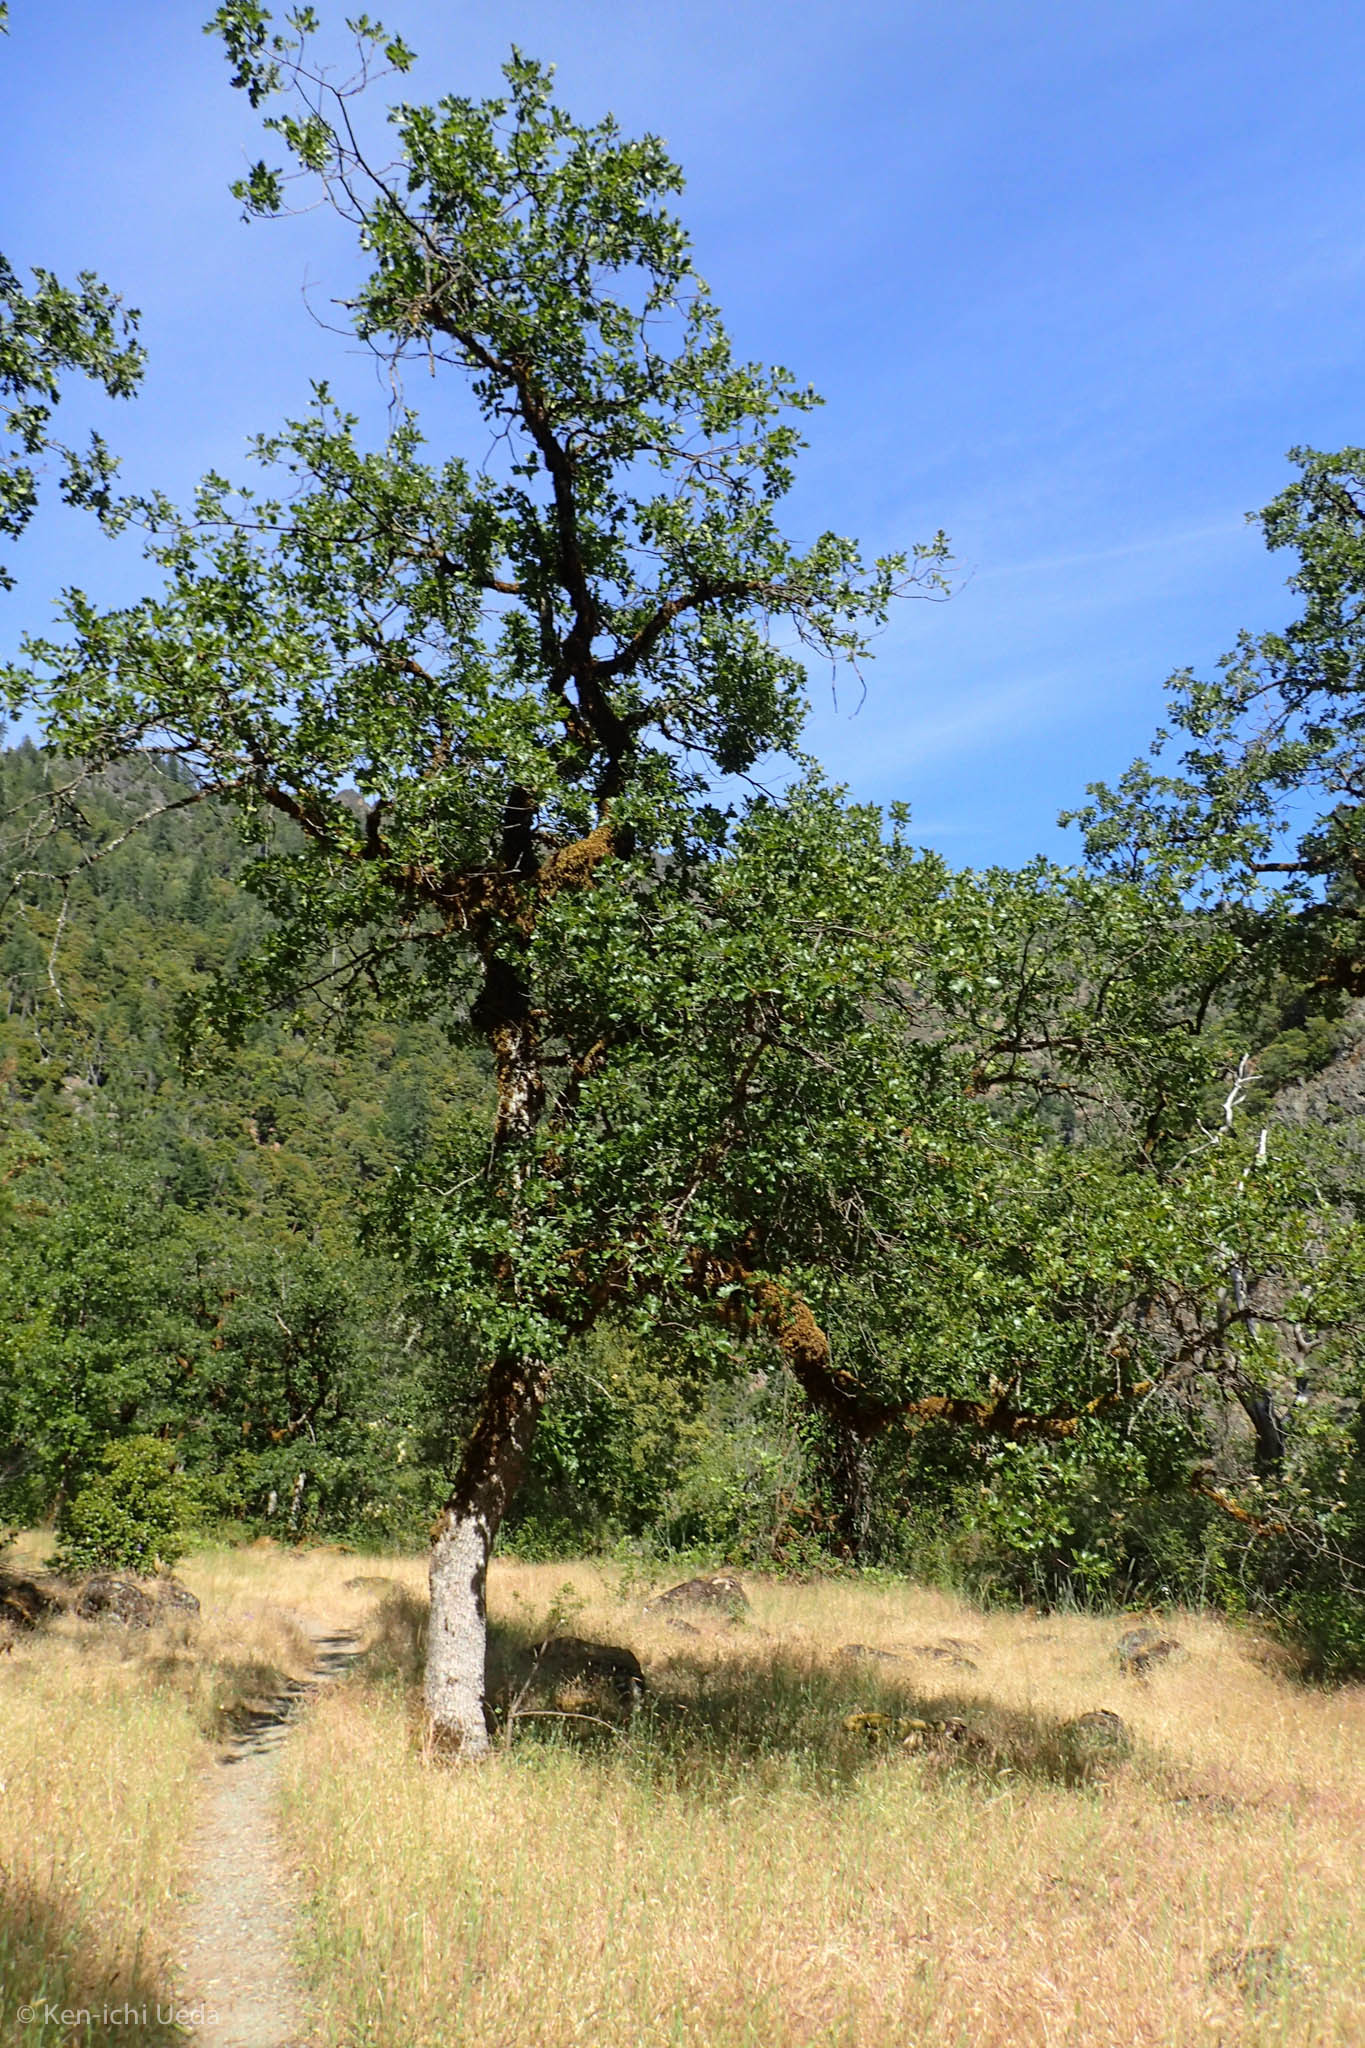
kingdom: Plantae
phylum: Tracheophyta
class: Magnoliopsida
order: Fagales
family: Fagaceae
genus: Quercus
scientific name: Quercus garryana
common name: Garry oak
